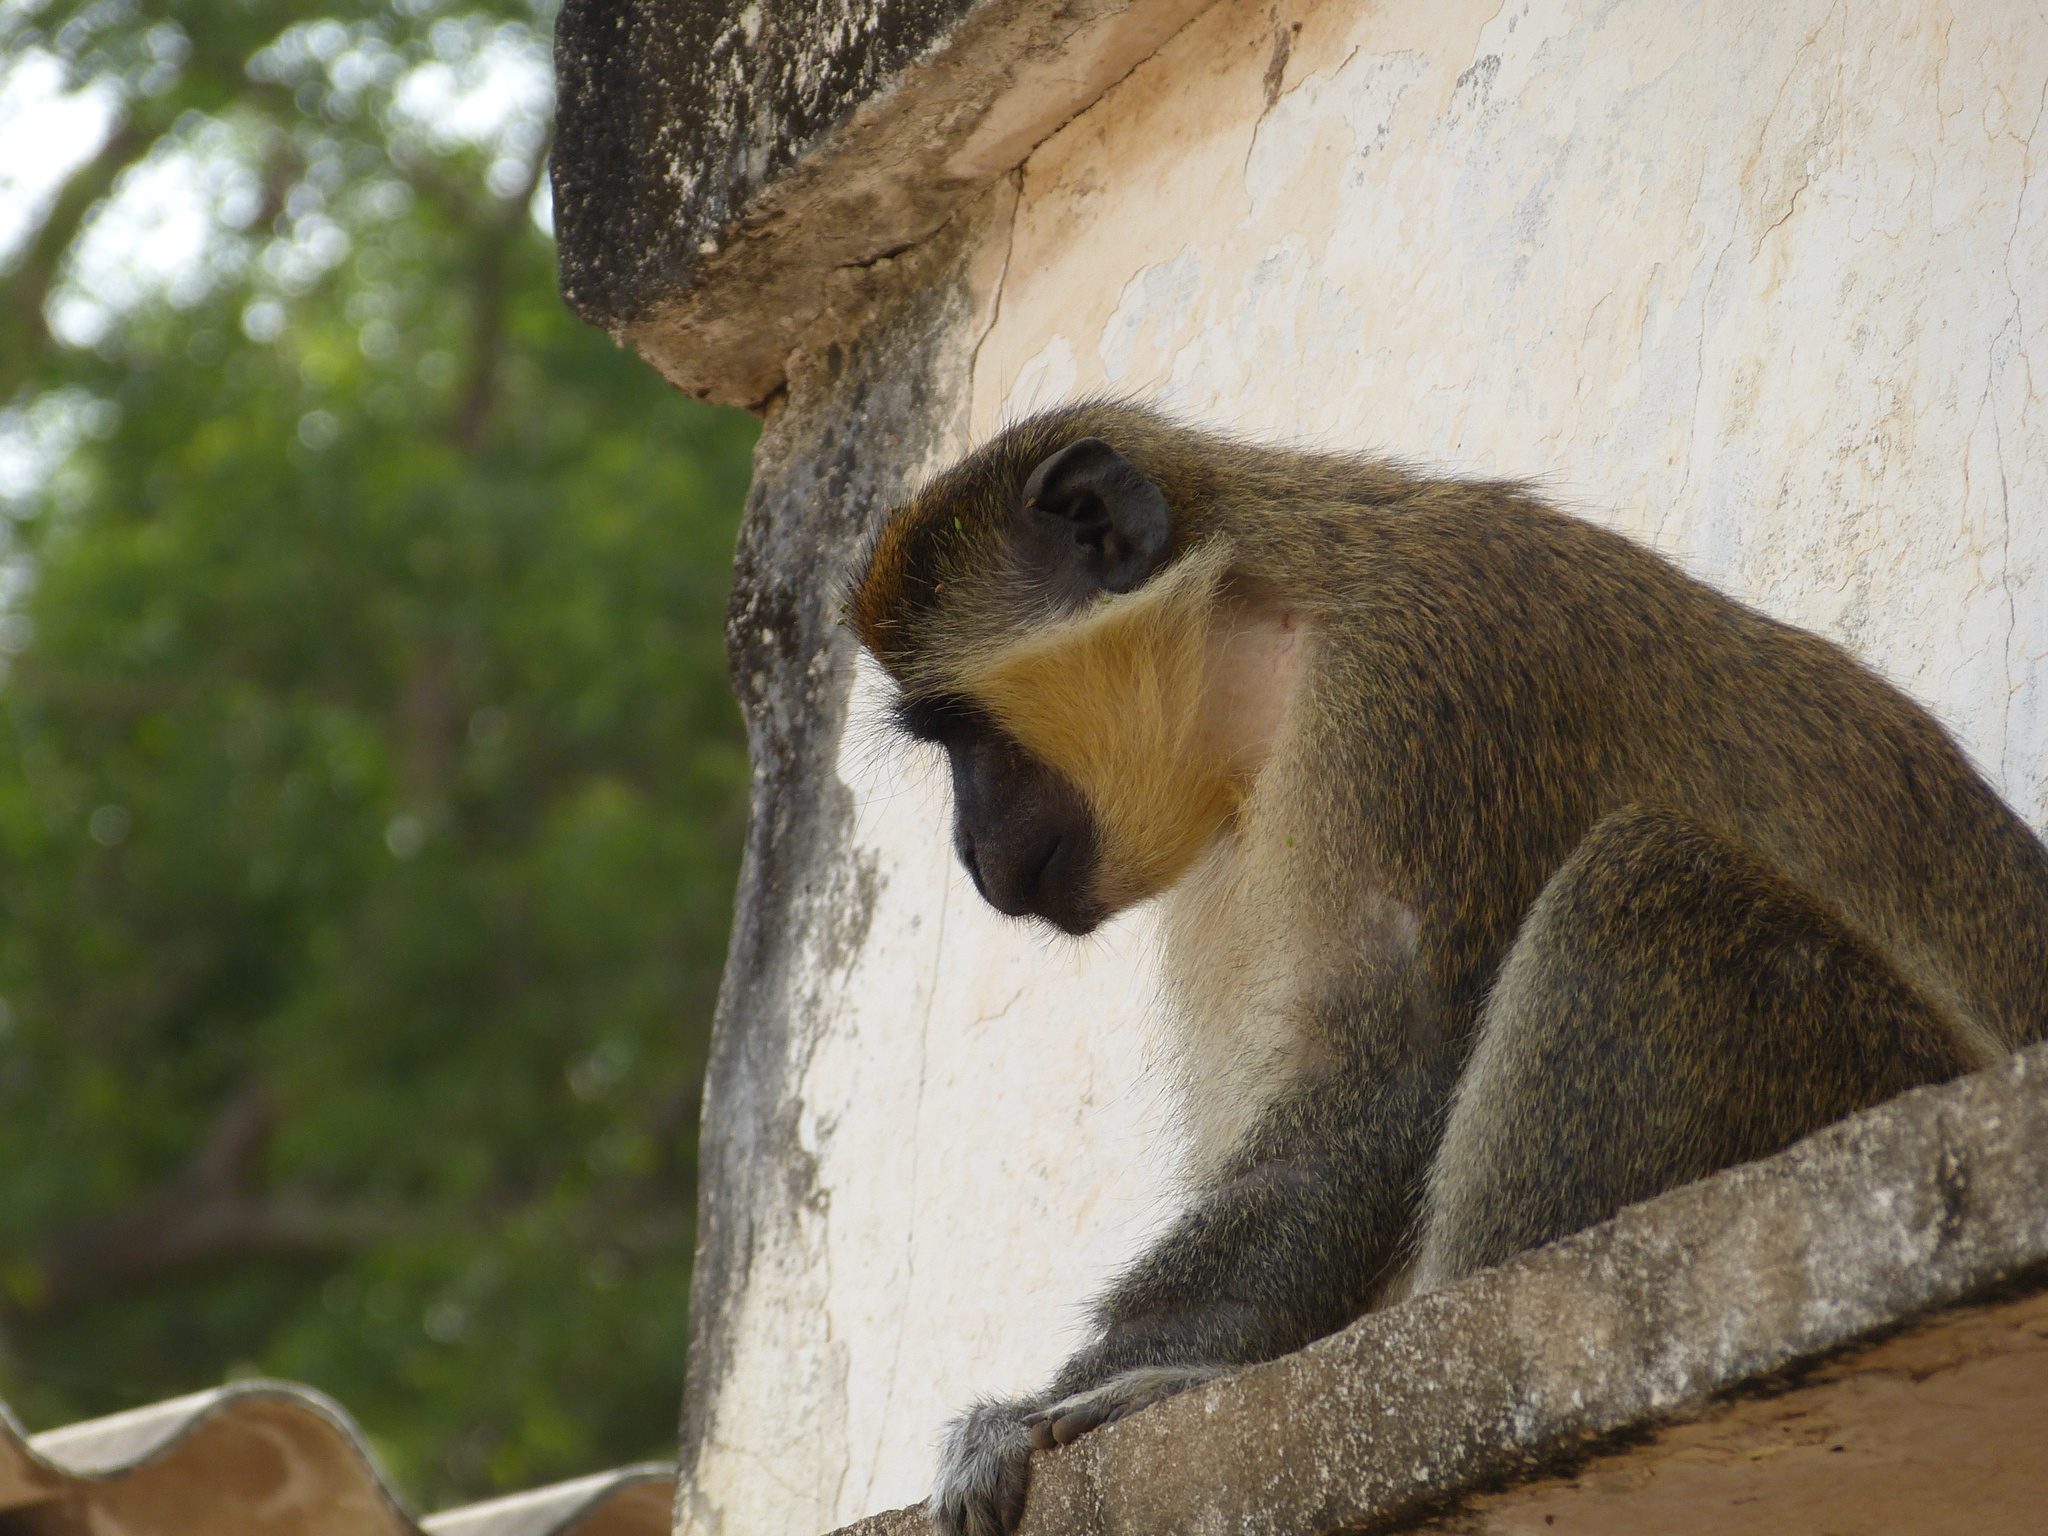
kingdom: Animalia
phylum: Chordata
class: Mammalia
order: Primates
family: Cercopithecidae
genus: Chlorocebus
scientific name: Chlorocebus sabaeus
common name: Green monkey
